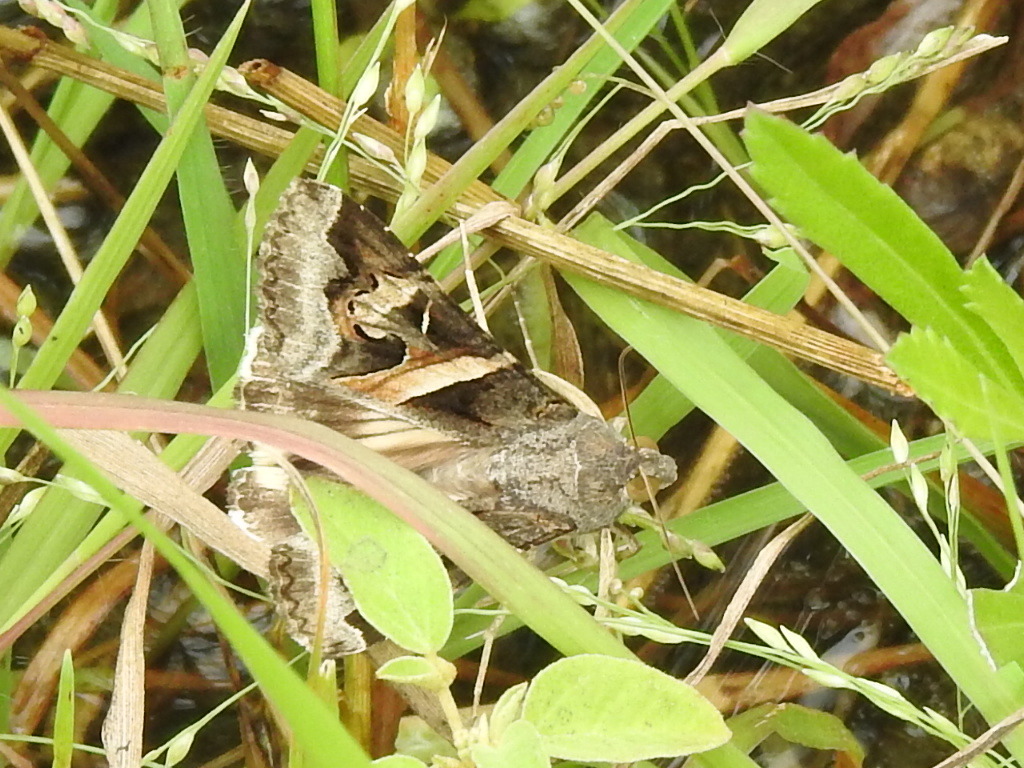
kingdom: Animalia
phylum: Arthropoda
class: Insecta
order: Lepidoptera
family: Erebidae
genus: Melipotis
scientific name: Melipotis indomita
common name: Moth
